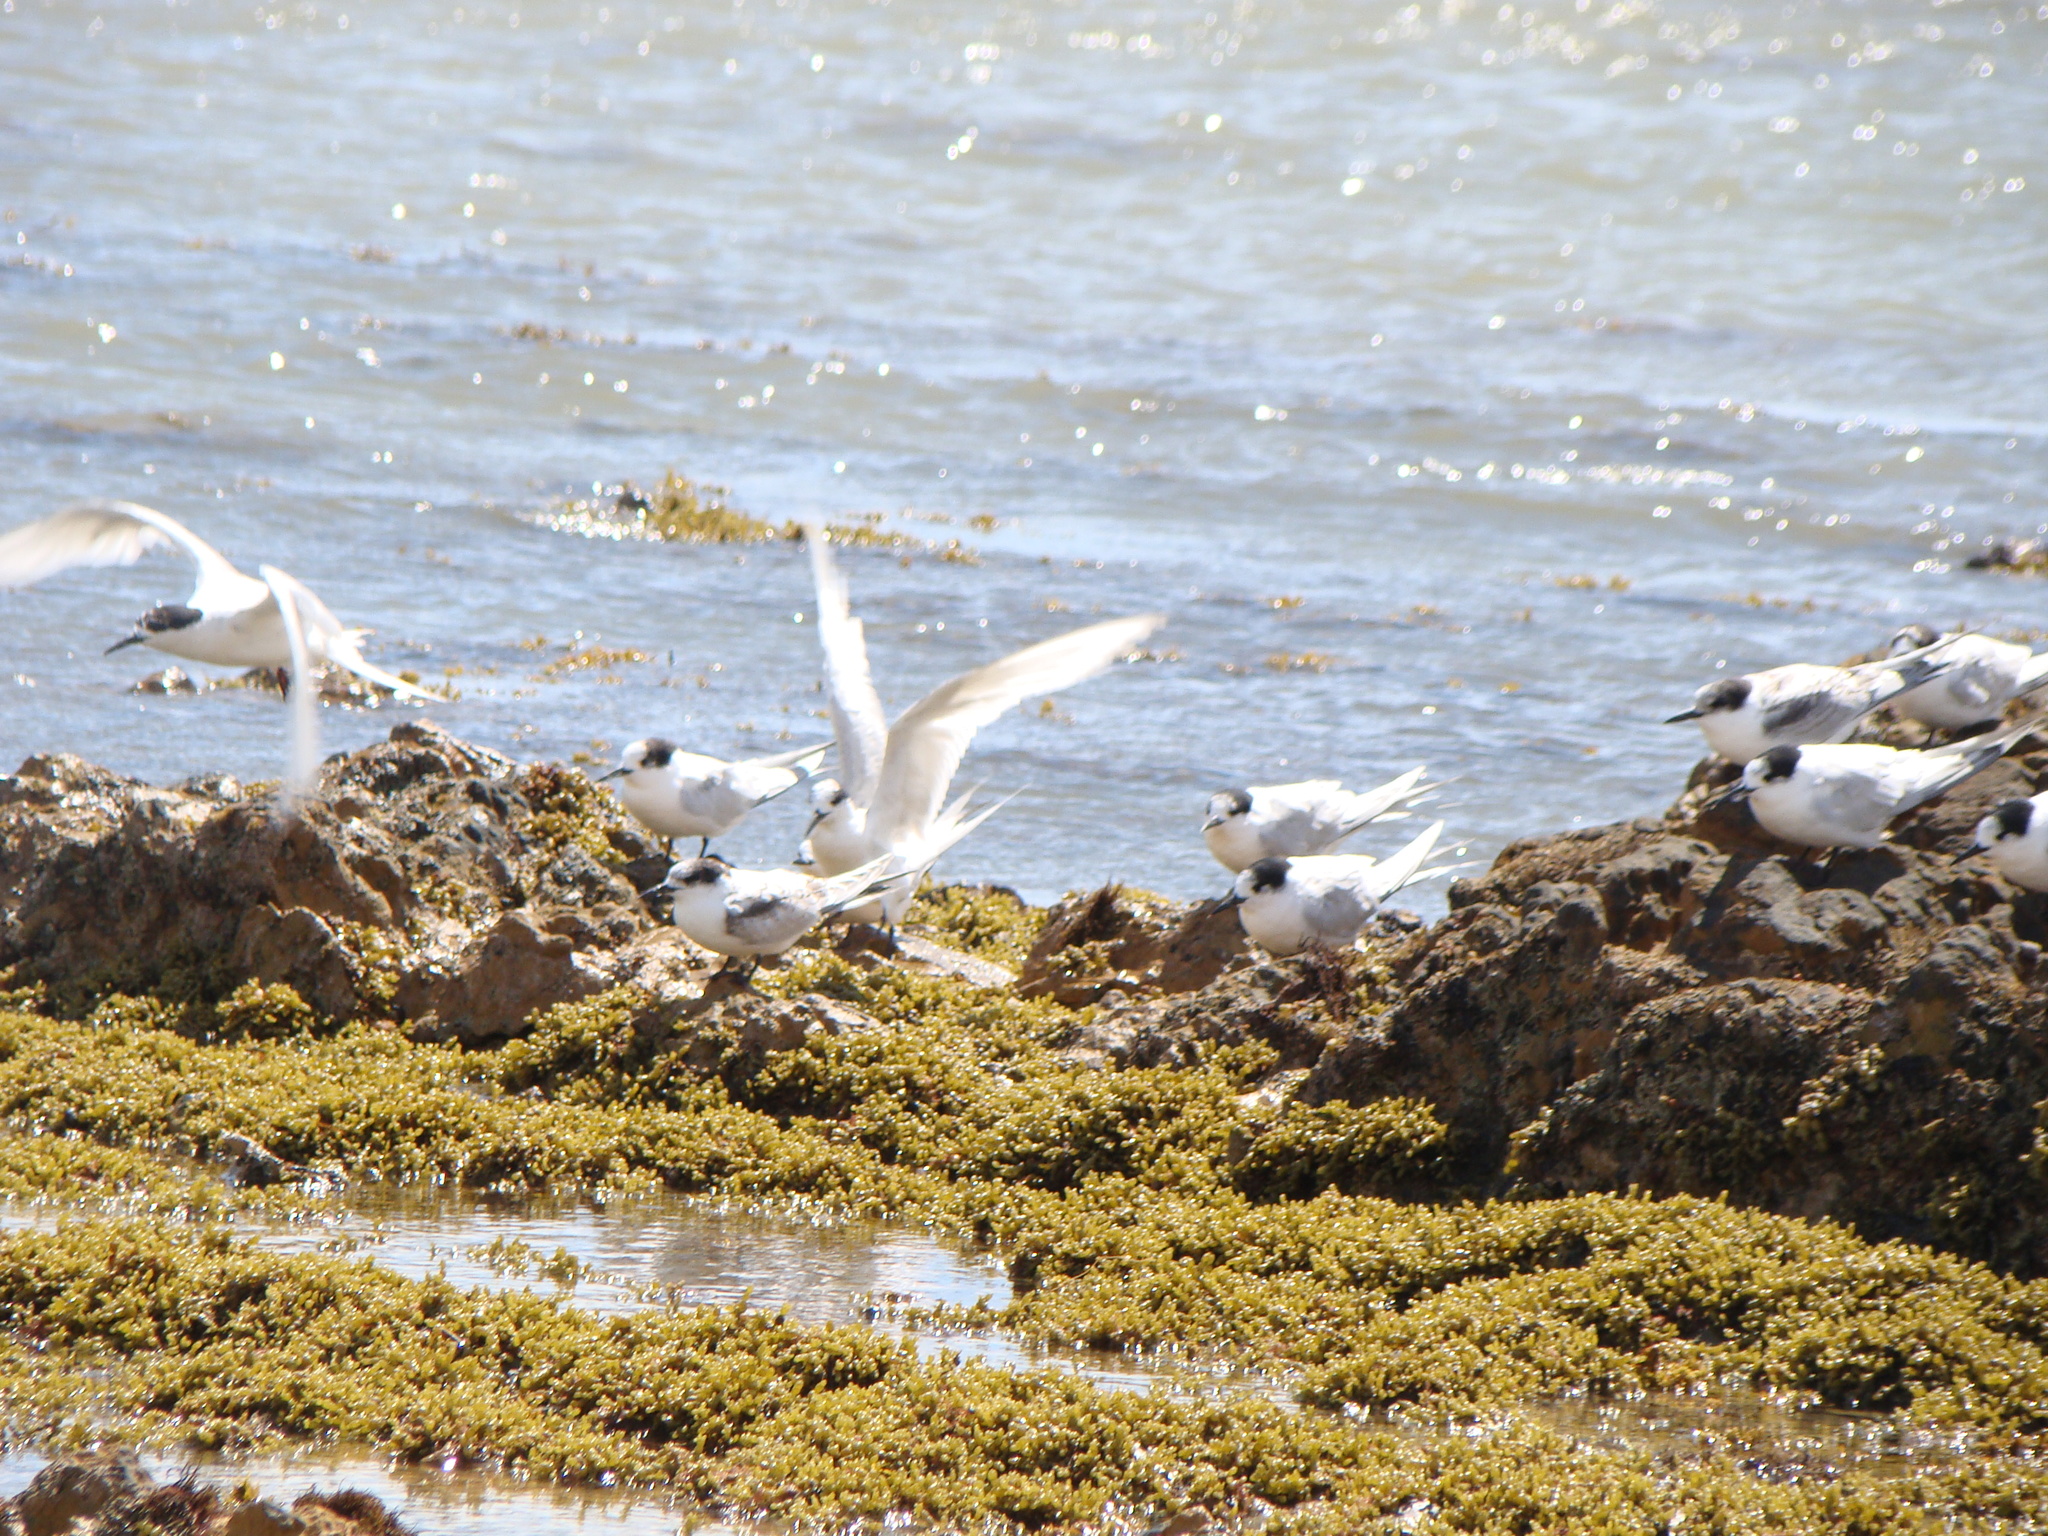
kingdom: Animalia
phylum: Chordata
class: Aves
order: Charadriiformes
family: Laridae
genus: Sterna
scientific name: Sterna striata
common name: White-fronted tern
